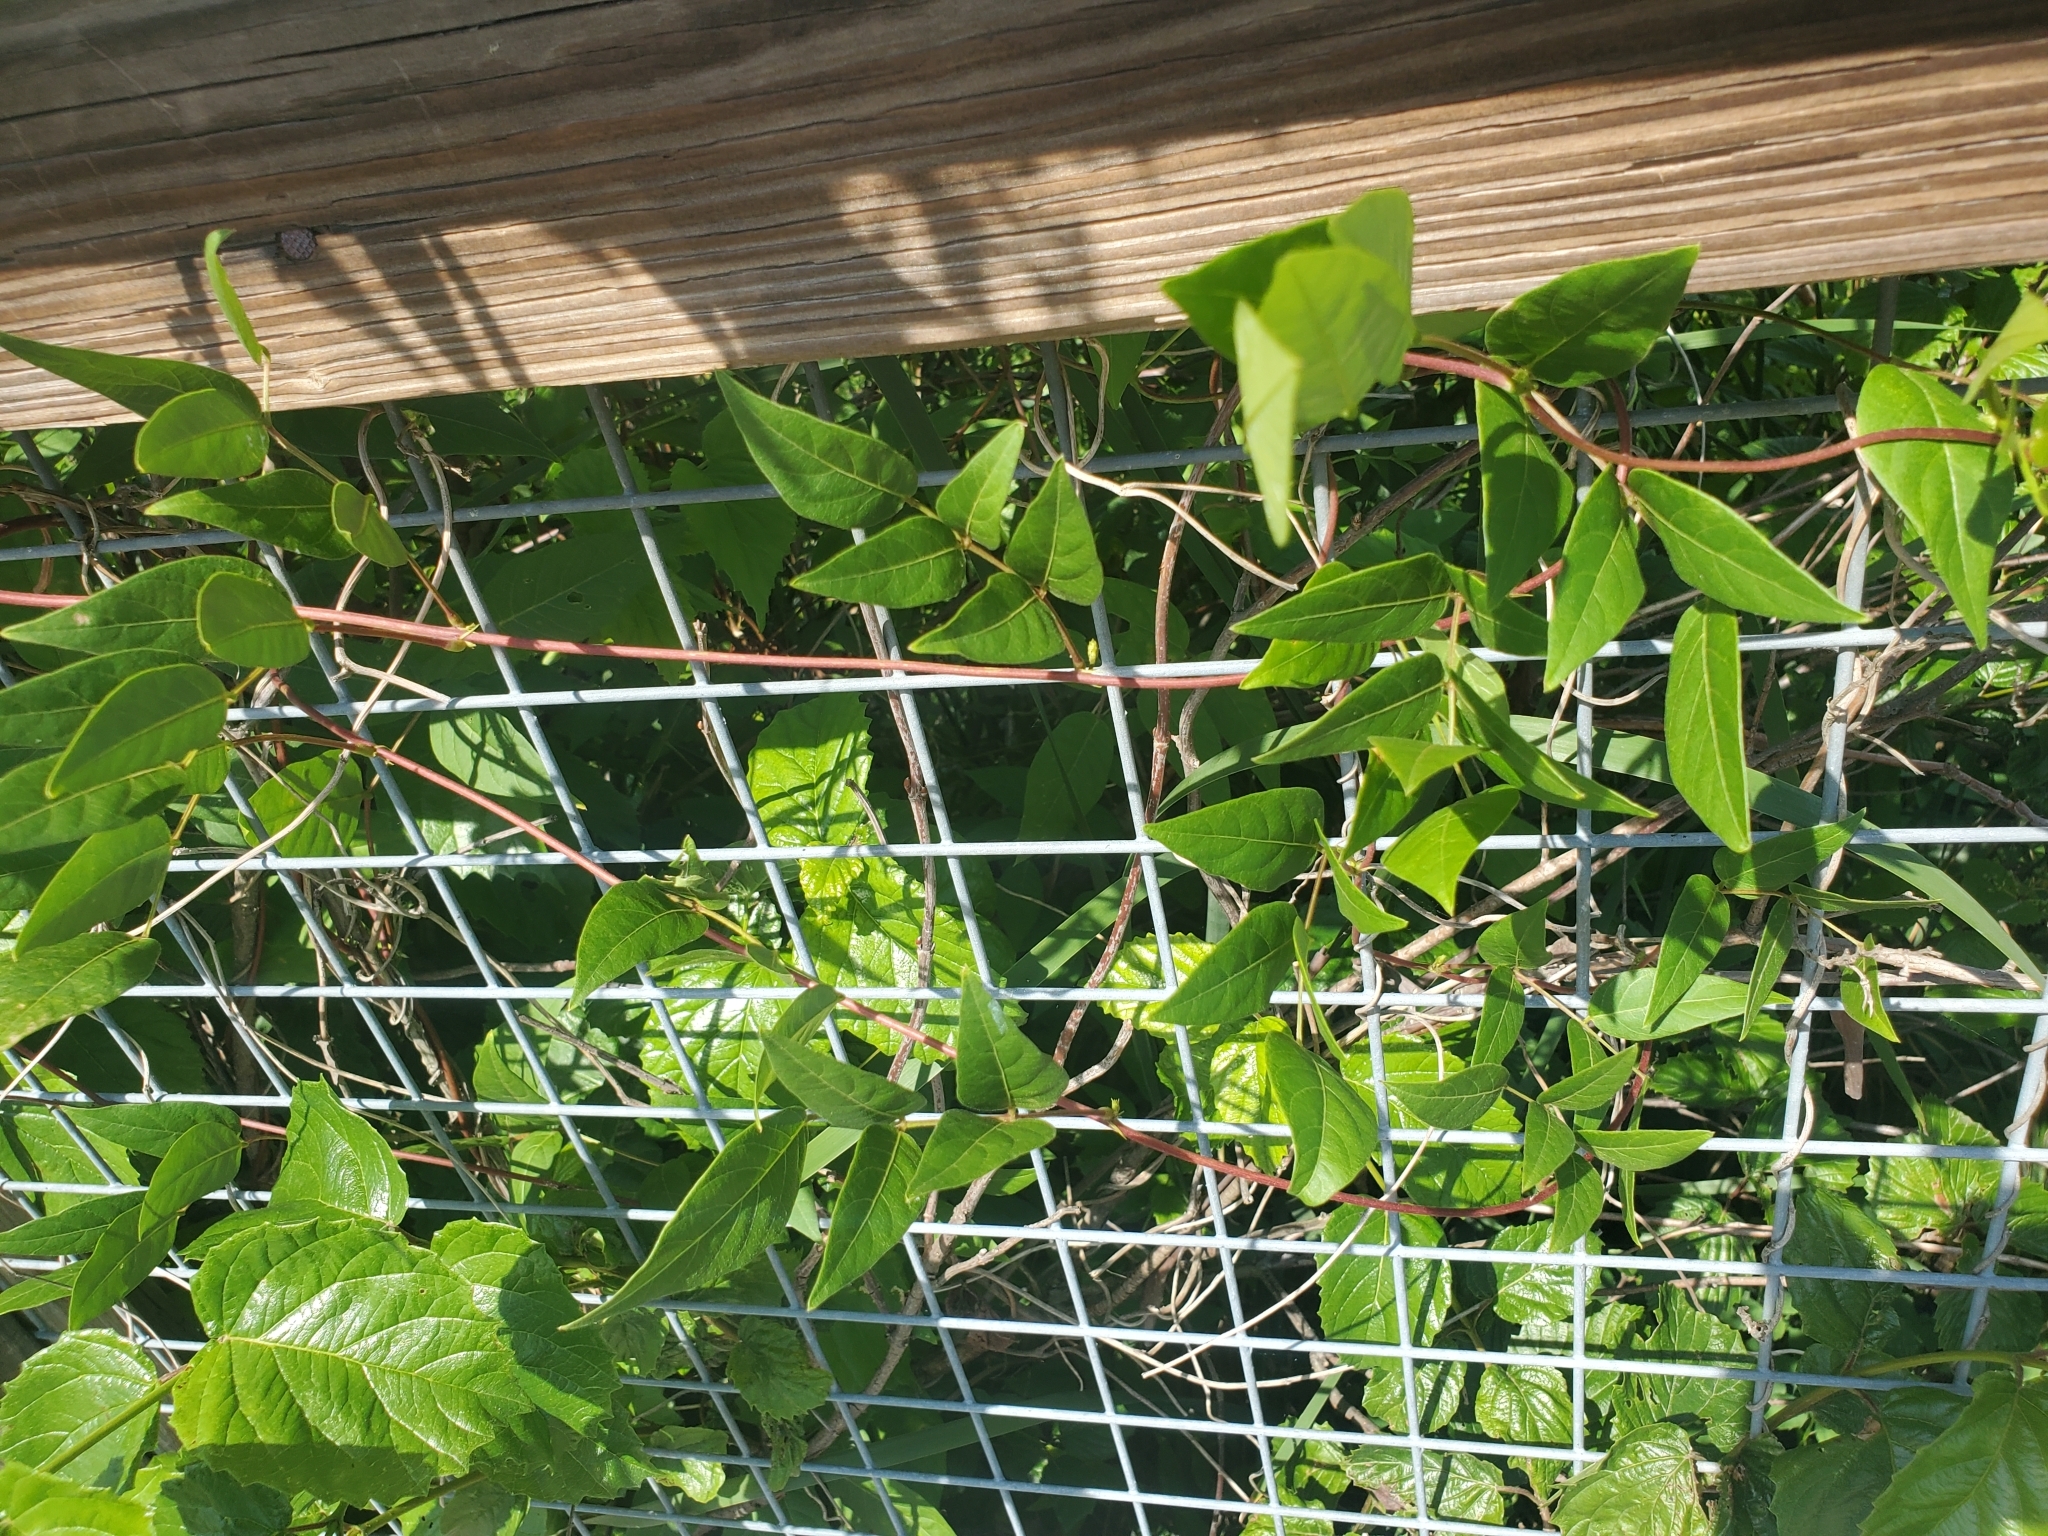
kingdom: Plantae
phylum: Tracheophyta
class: Magnoliopsida
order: Fabales
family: Fabaceae
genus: Apios
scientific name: Apios americana
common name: American potato-bean
